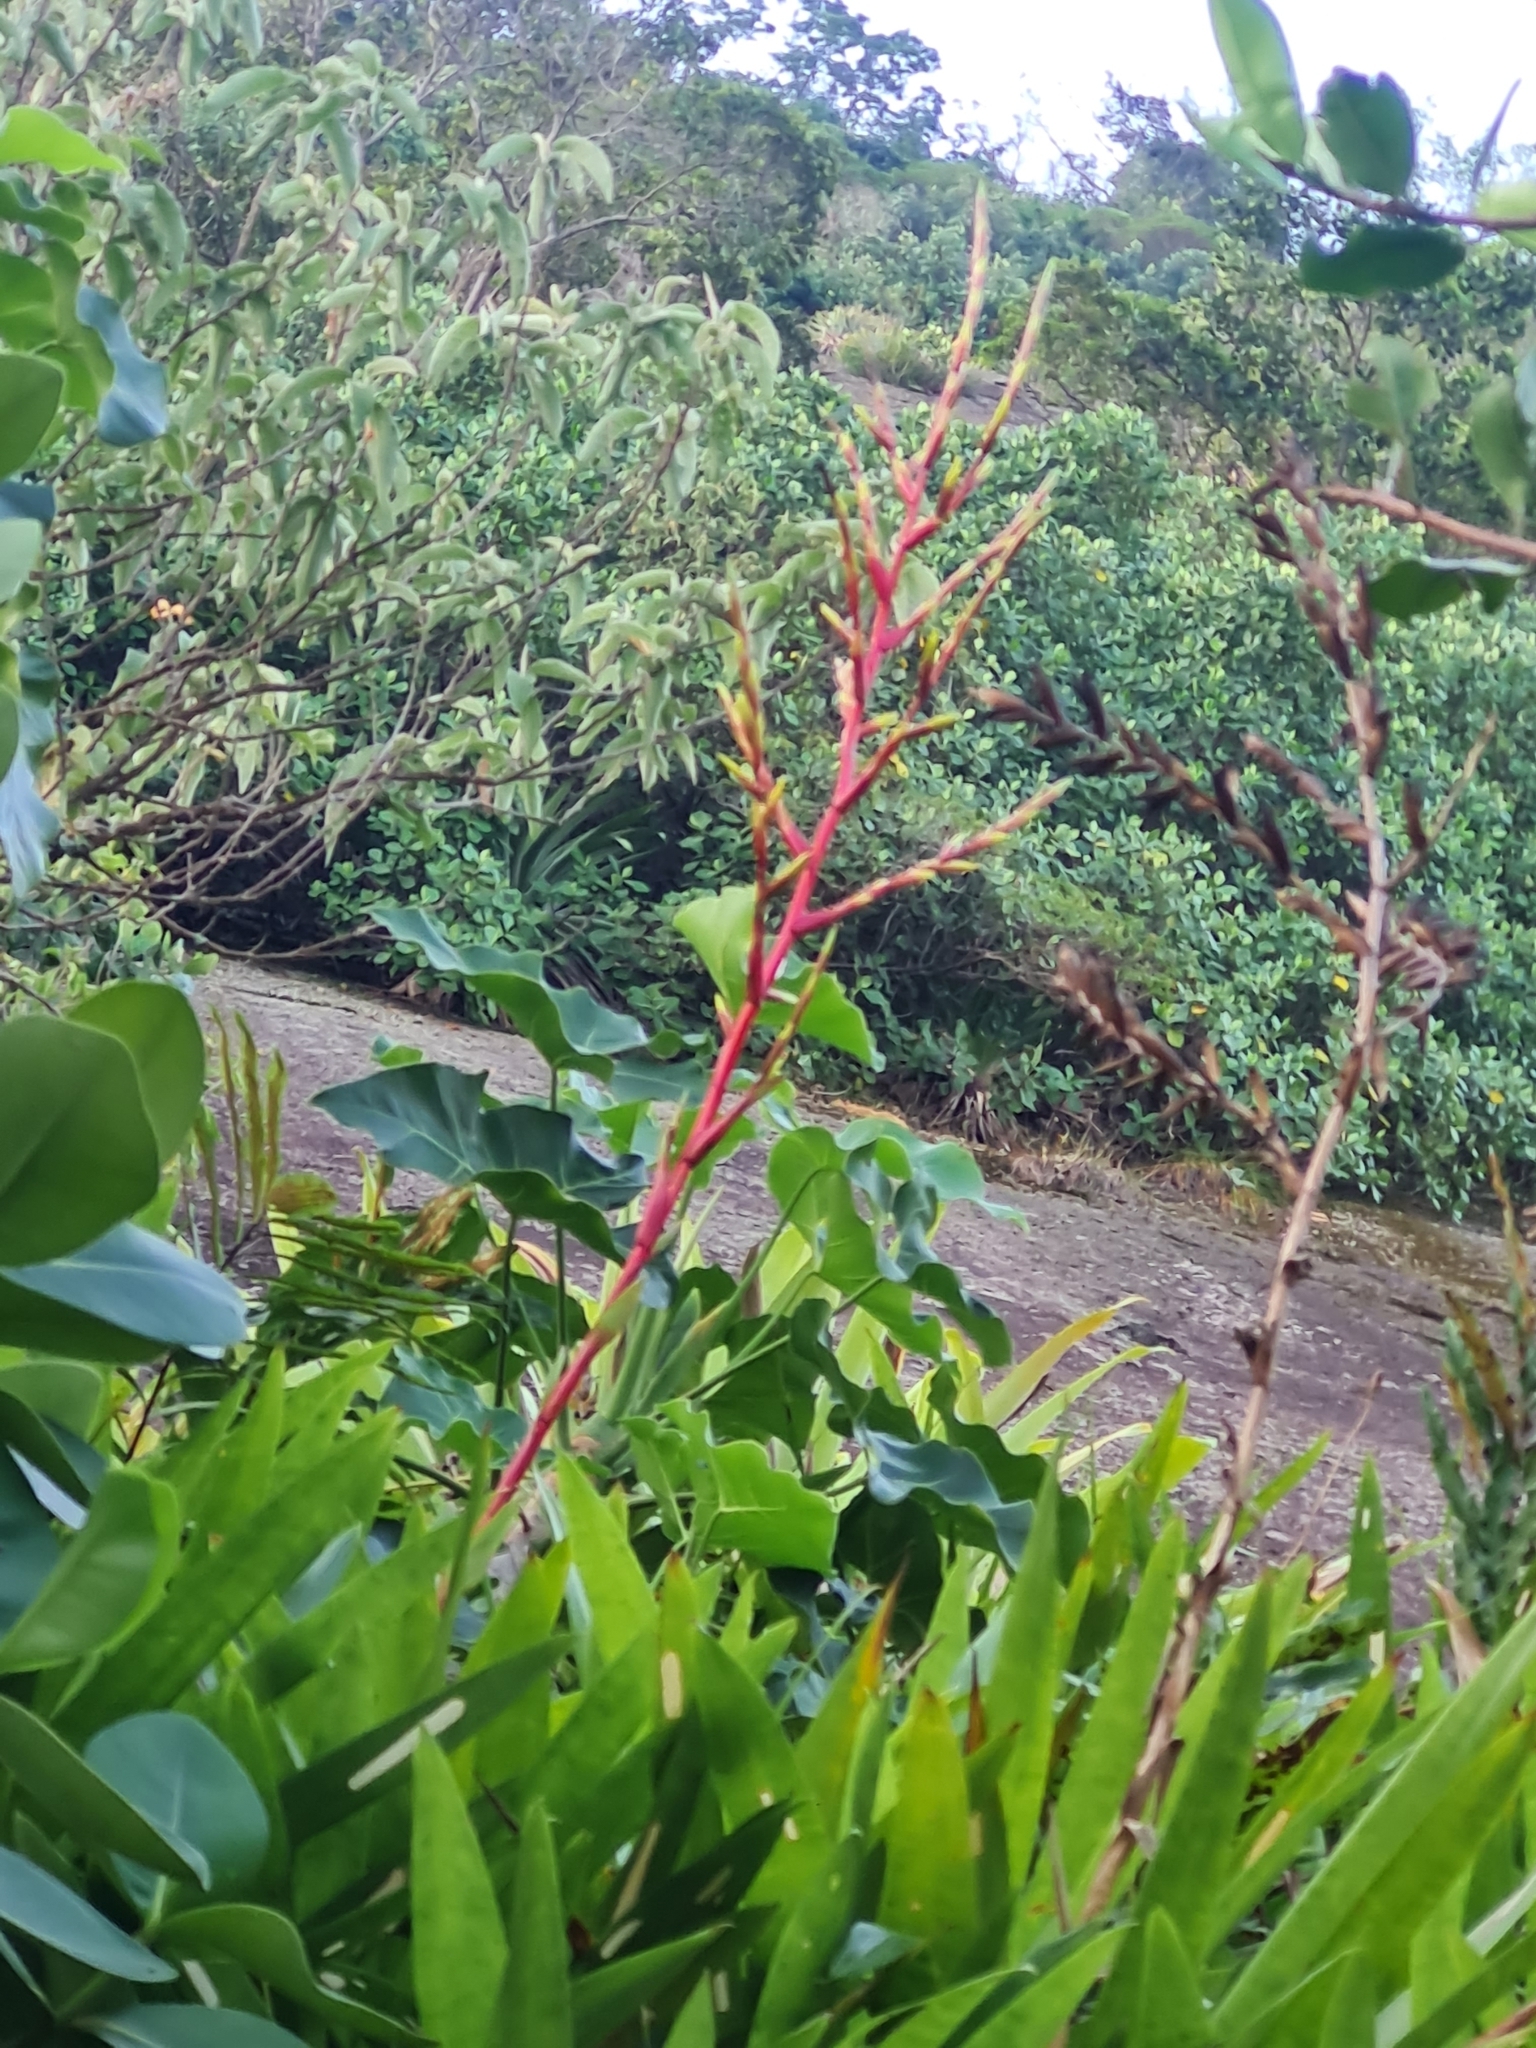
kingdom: Plantae
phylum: Tracheophyta
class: Liliopsida
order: Poales
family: Bromeliaceae
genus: Vriesea
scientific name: Vriesea neoglutinosa
